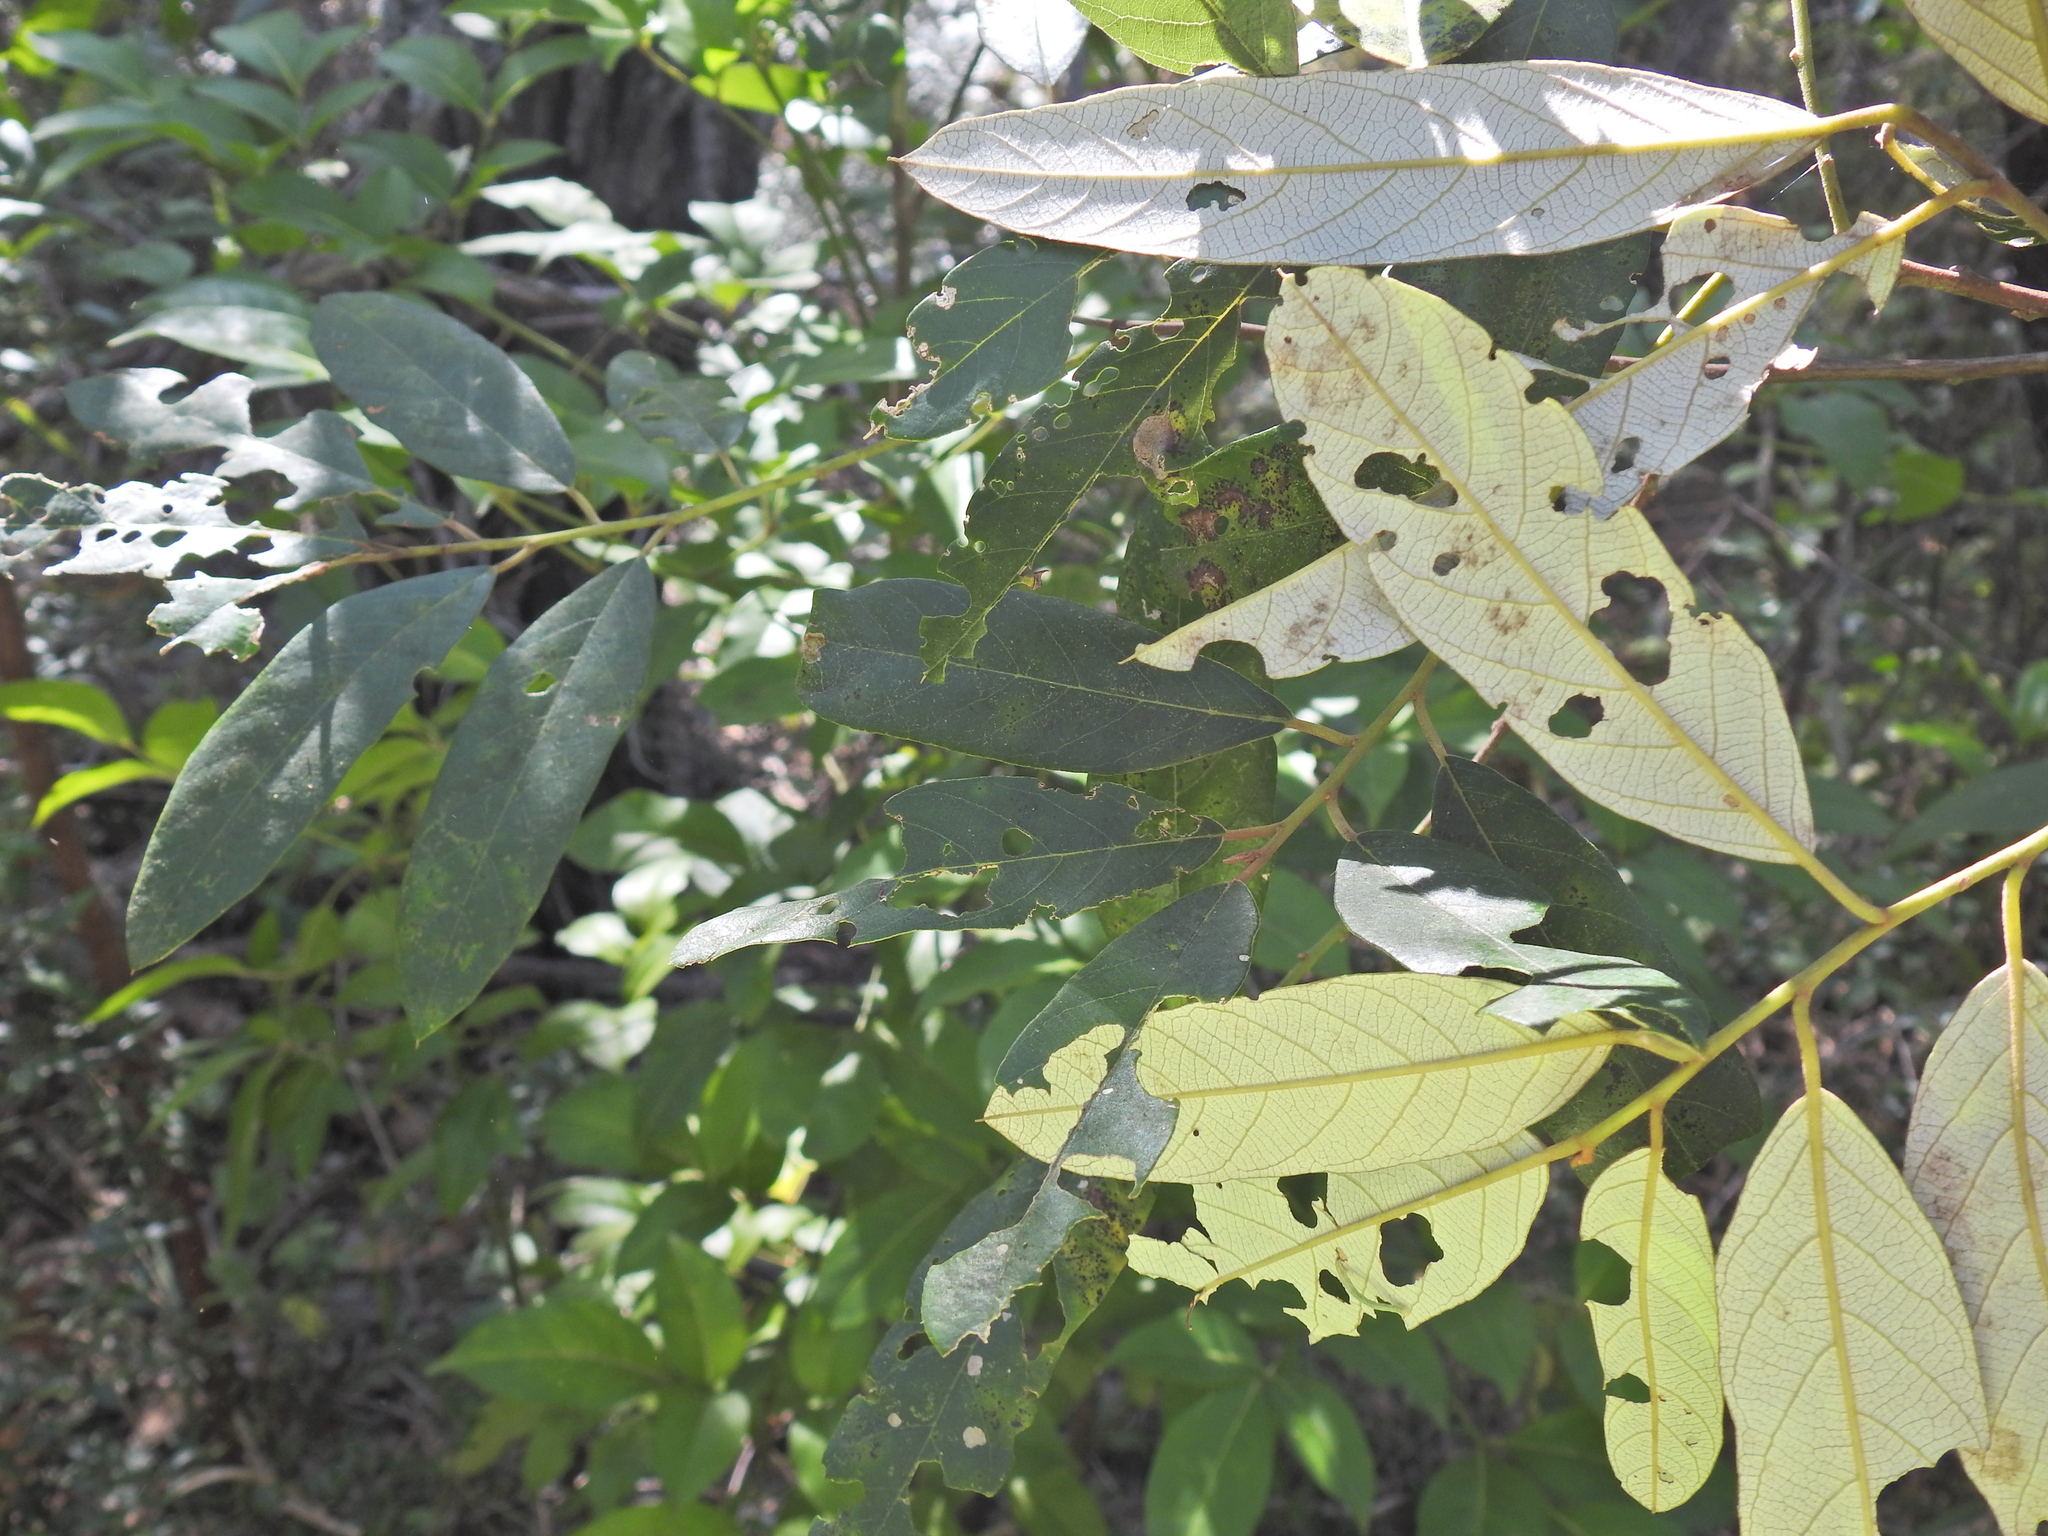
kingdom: Plantae
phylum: Tracheophyta
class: Magnoliopsida
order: Rosales
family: Rhamnaceae
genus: Alphitonia
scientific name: Alphitonia excelsa
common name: Red ash
